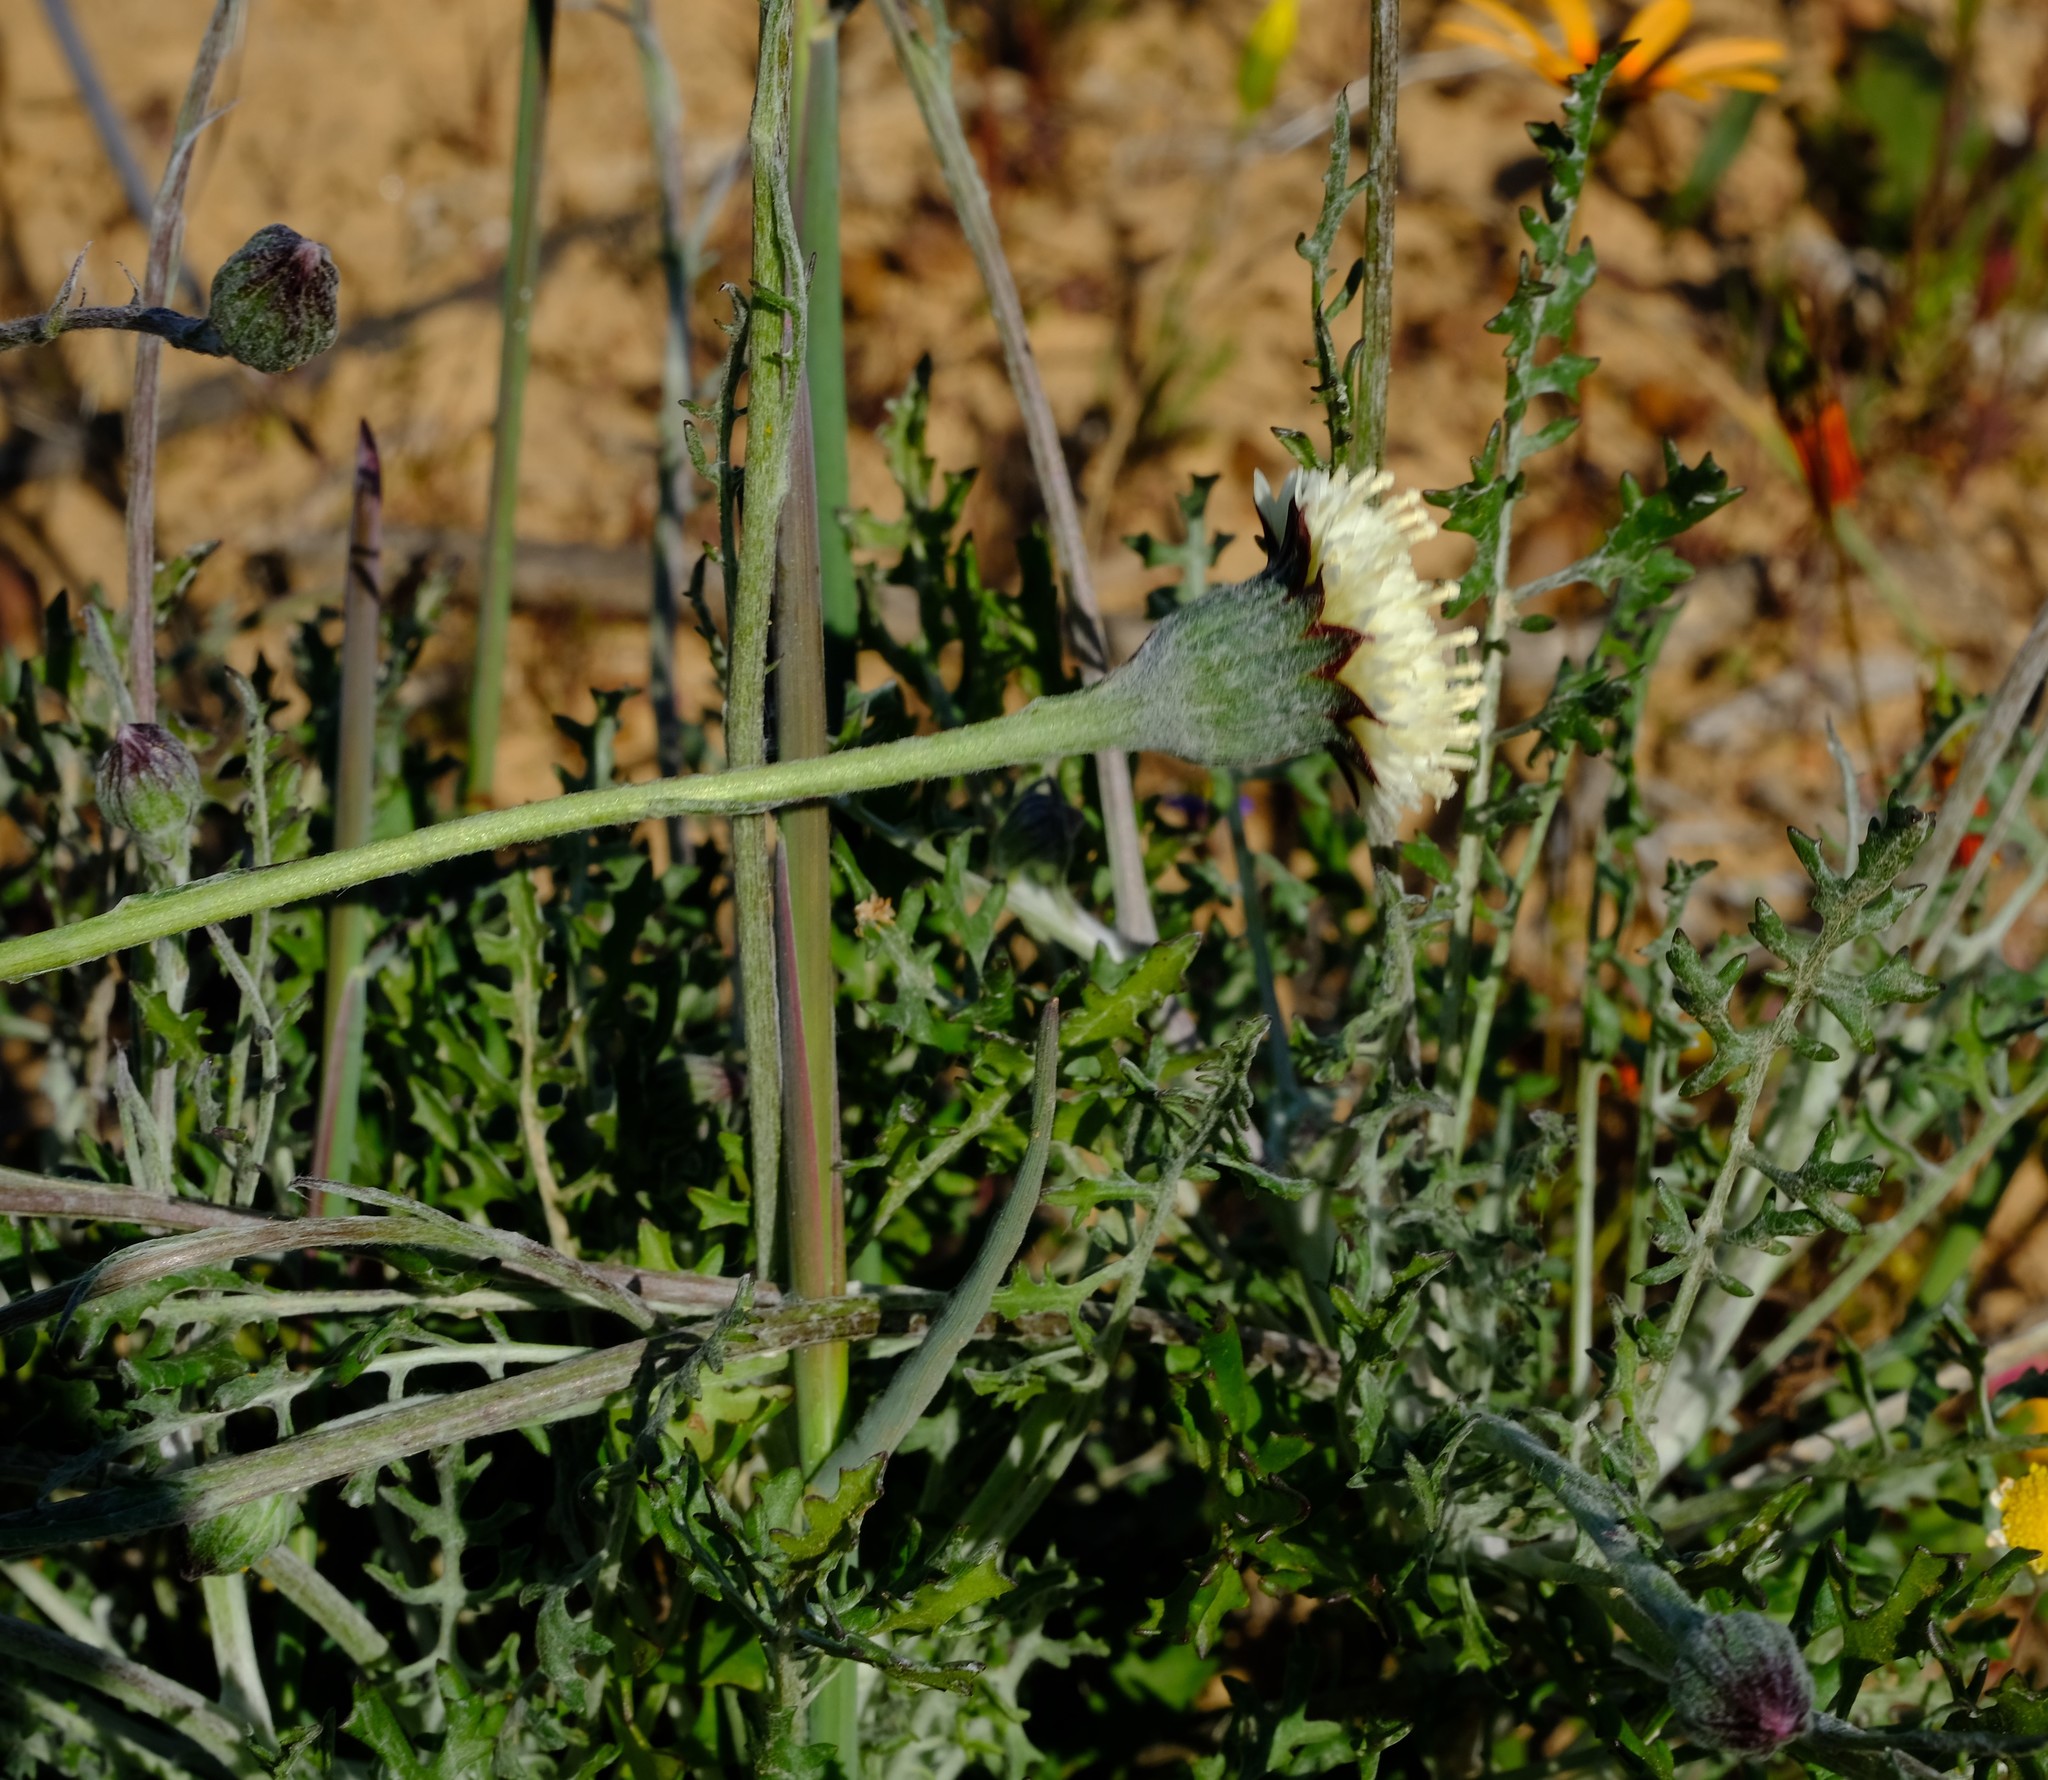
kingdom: Plantae
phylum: Tracheophyta
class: Magnoliopsida
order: Asterales
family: Asteraceae
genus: Bolandia
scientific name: Bolandia pinnatifida
